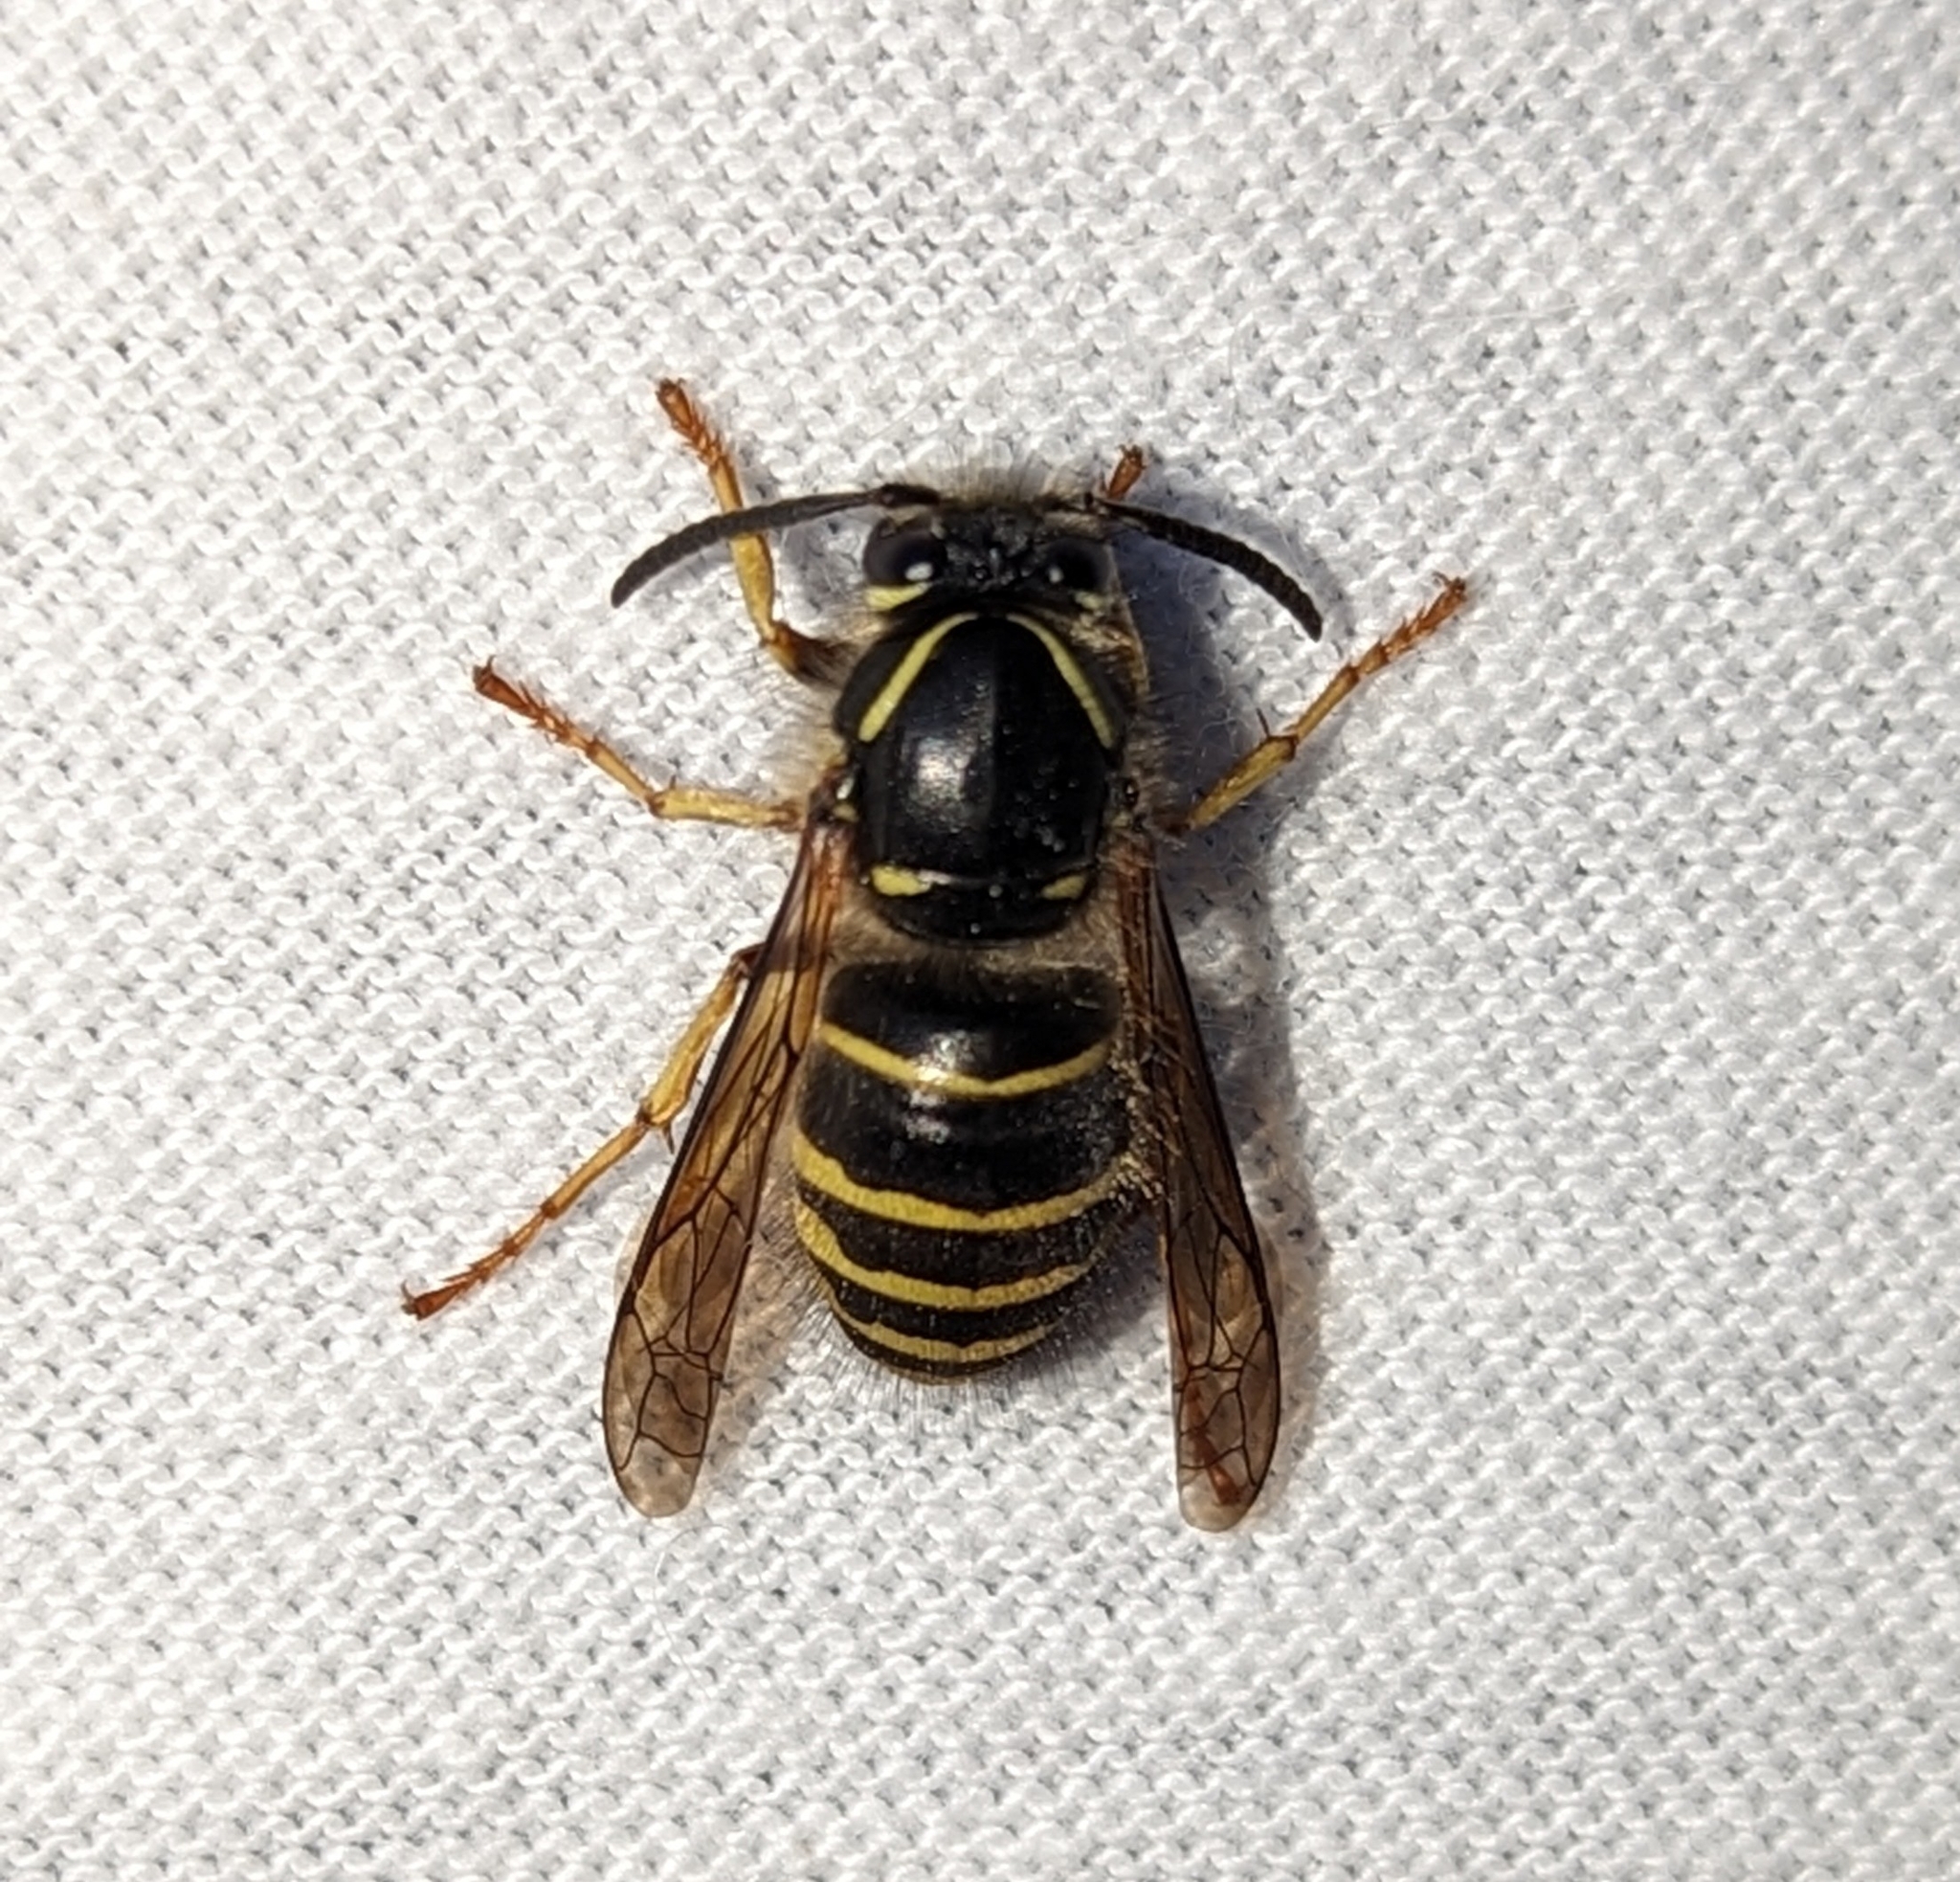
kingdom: Animalia
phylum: Arthropoda
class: Insecta
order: Hymenoptera
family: Vespidae
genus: Dolichovespula
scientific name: Dolichovespula norvegicoides
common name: Northern aerial yellowjacket
